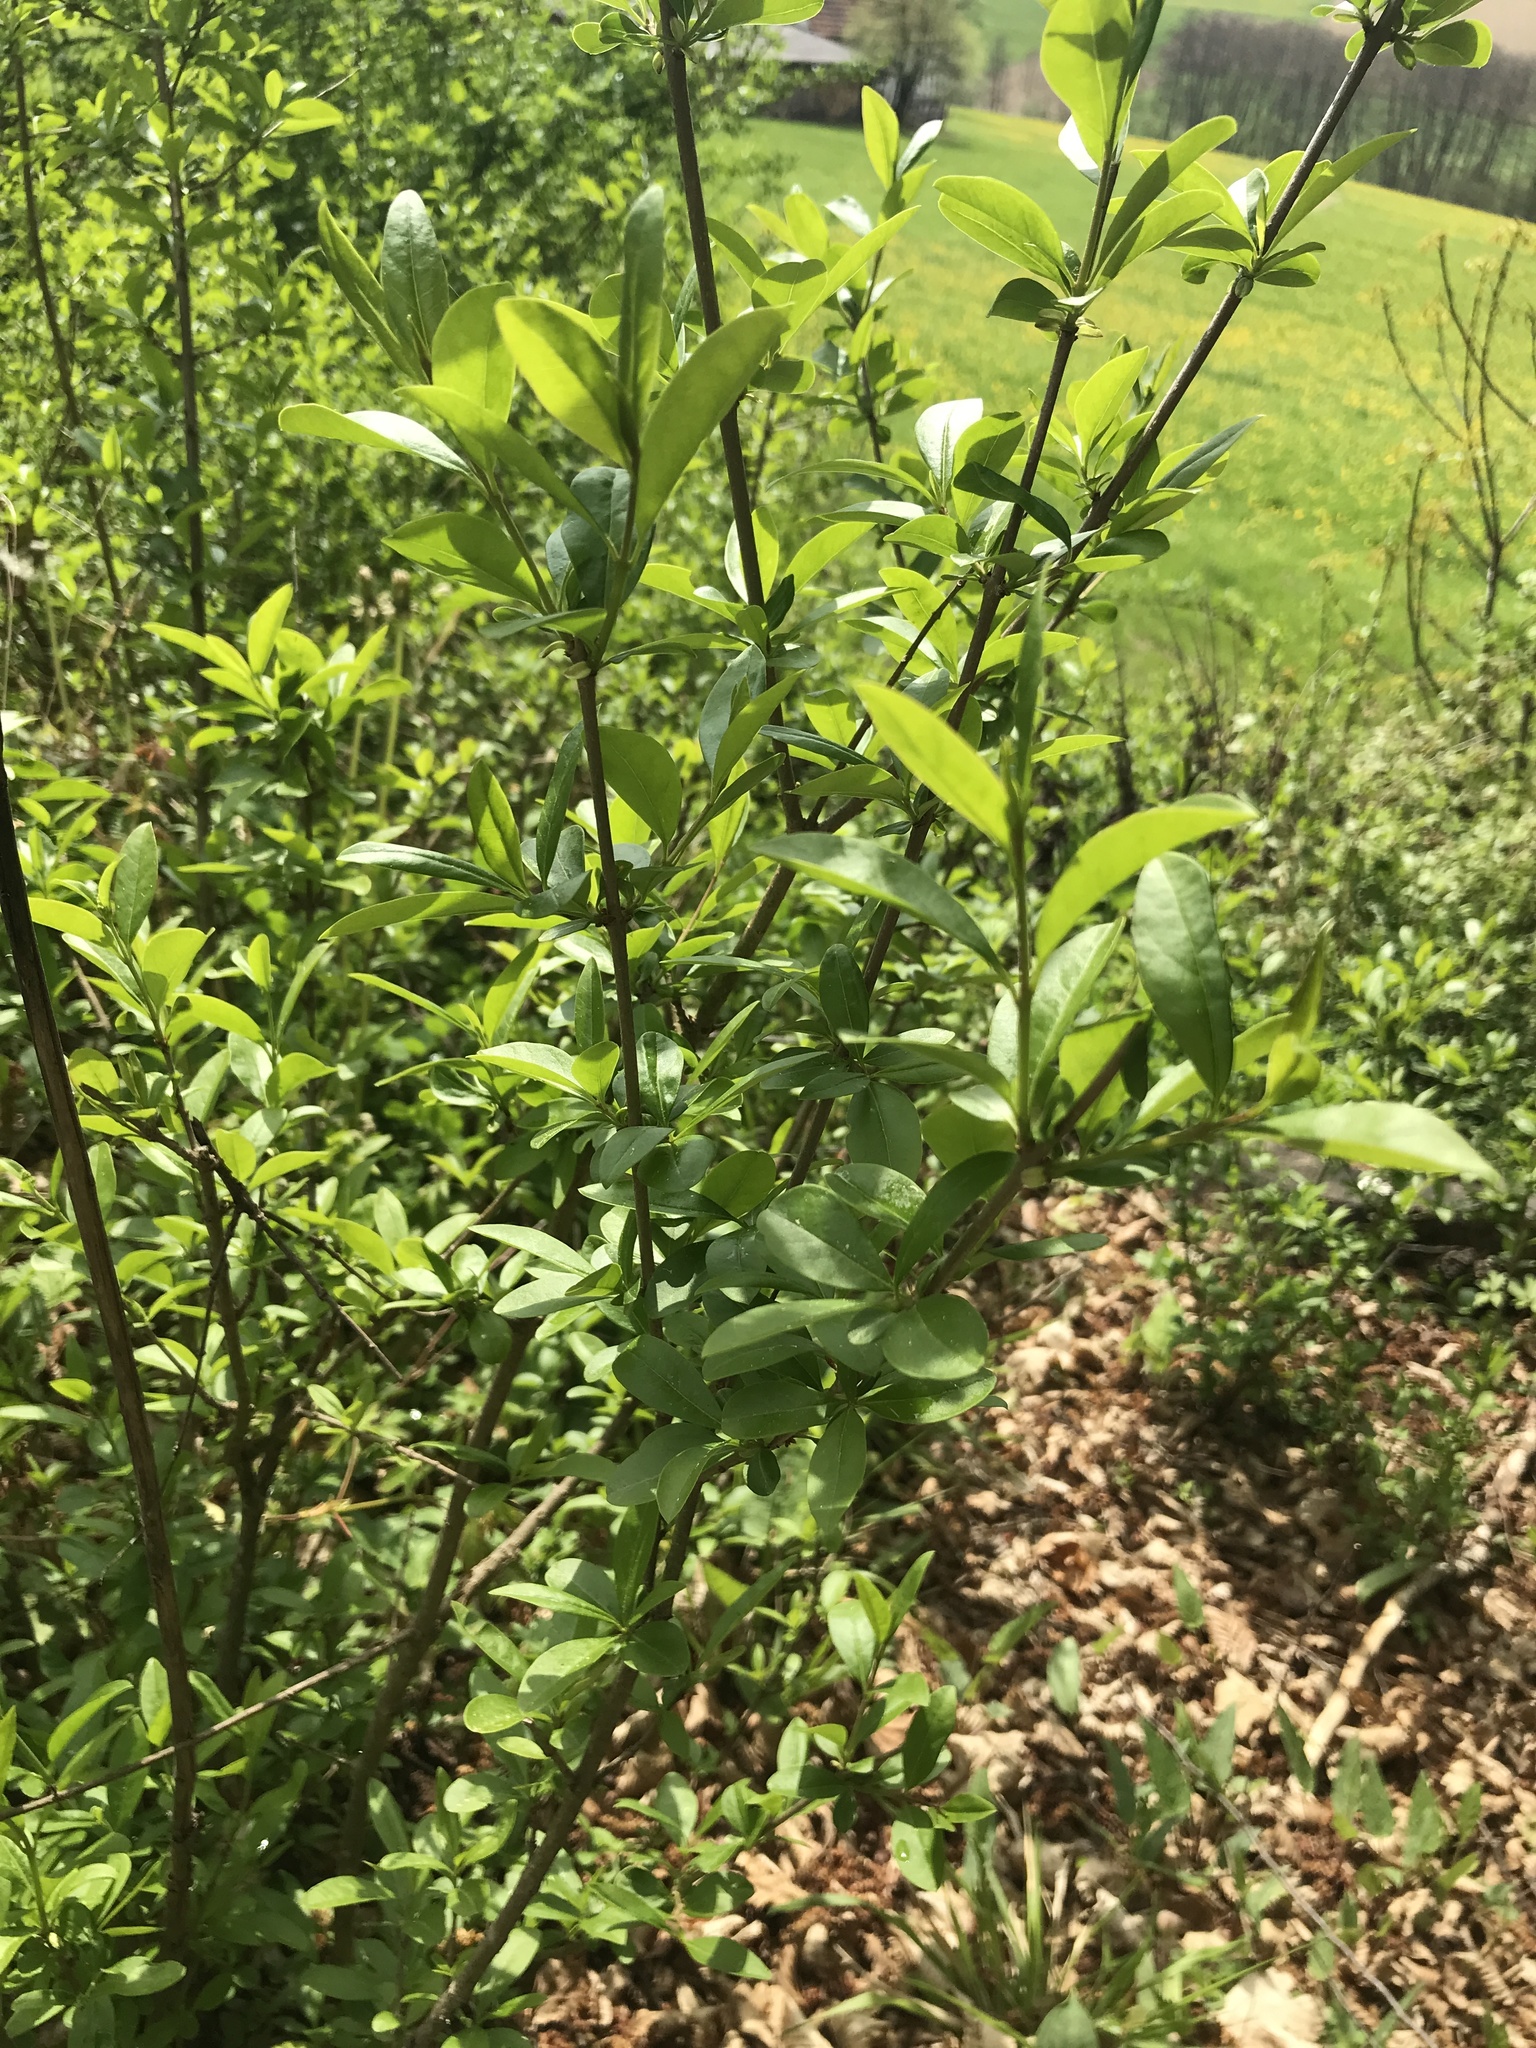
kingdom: Plantae
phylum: Tracheophyta
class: Magnoliopsida
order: Lamiales
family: Oleaceae
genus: Ligustrum
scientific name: Ligustrum vulgare
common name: Wild privet
